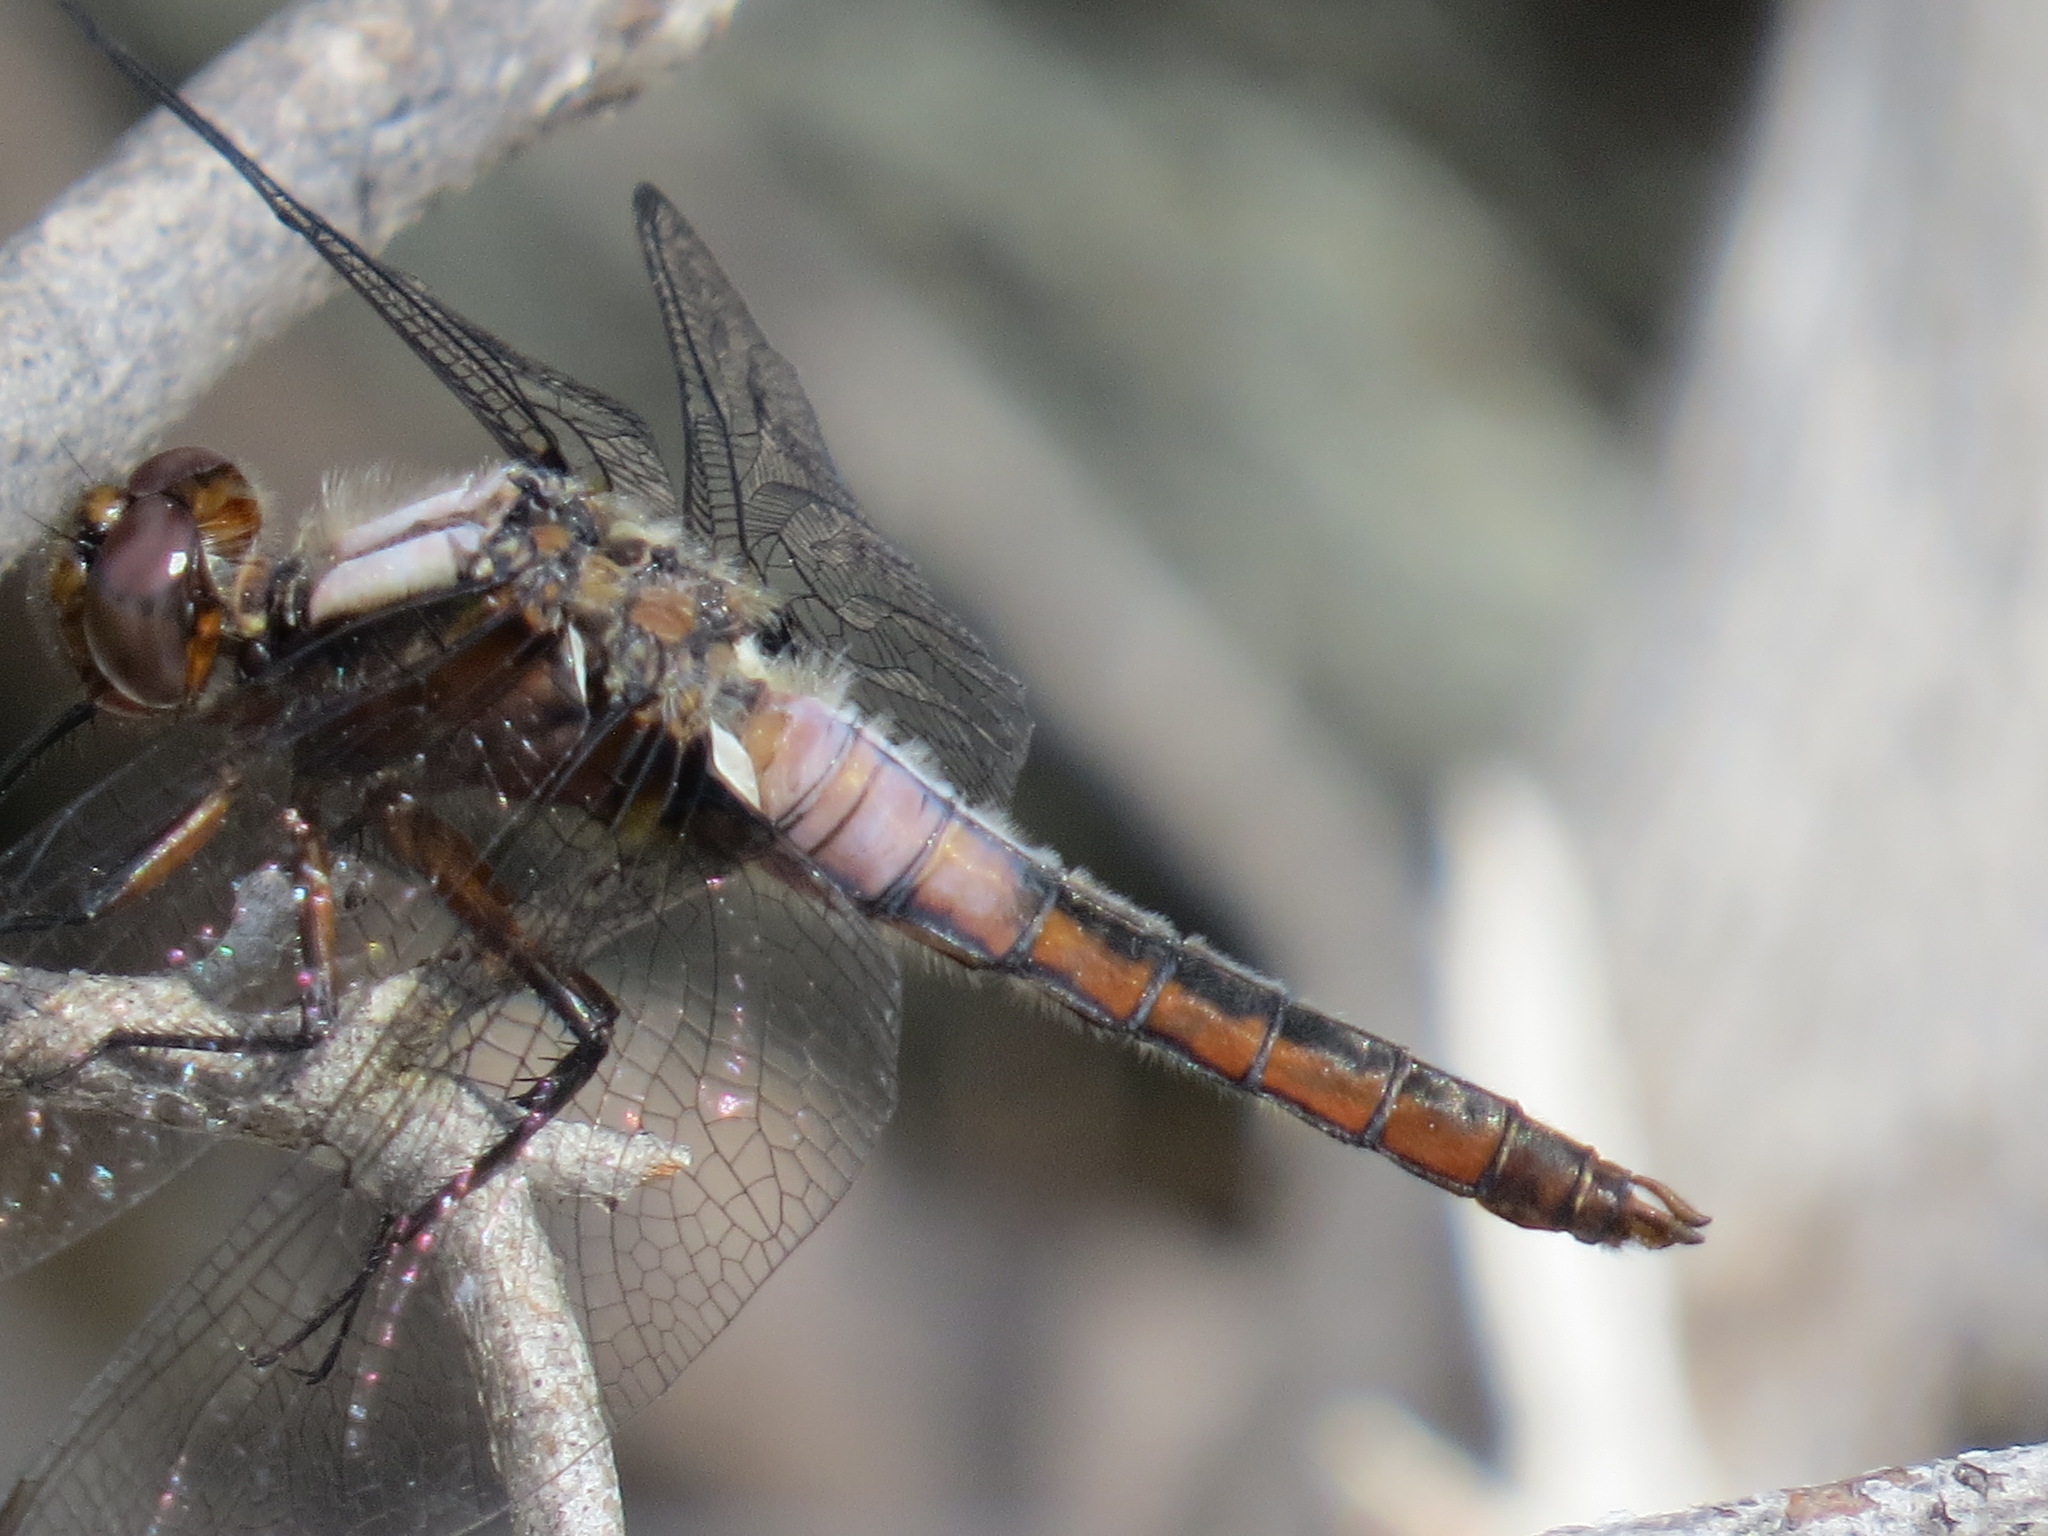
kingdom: Animalia
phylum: Arthropoda
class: Insecta
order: Odonata
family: Libellulidae
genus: Ladona
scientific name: Ladona julia
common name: Chalk-fronted corporal
